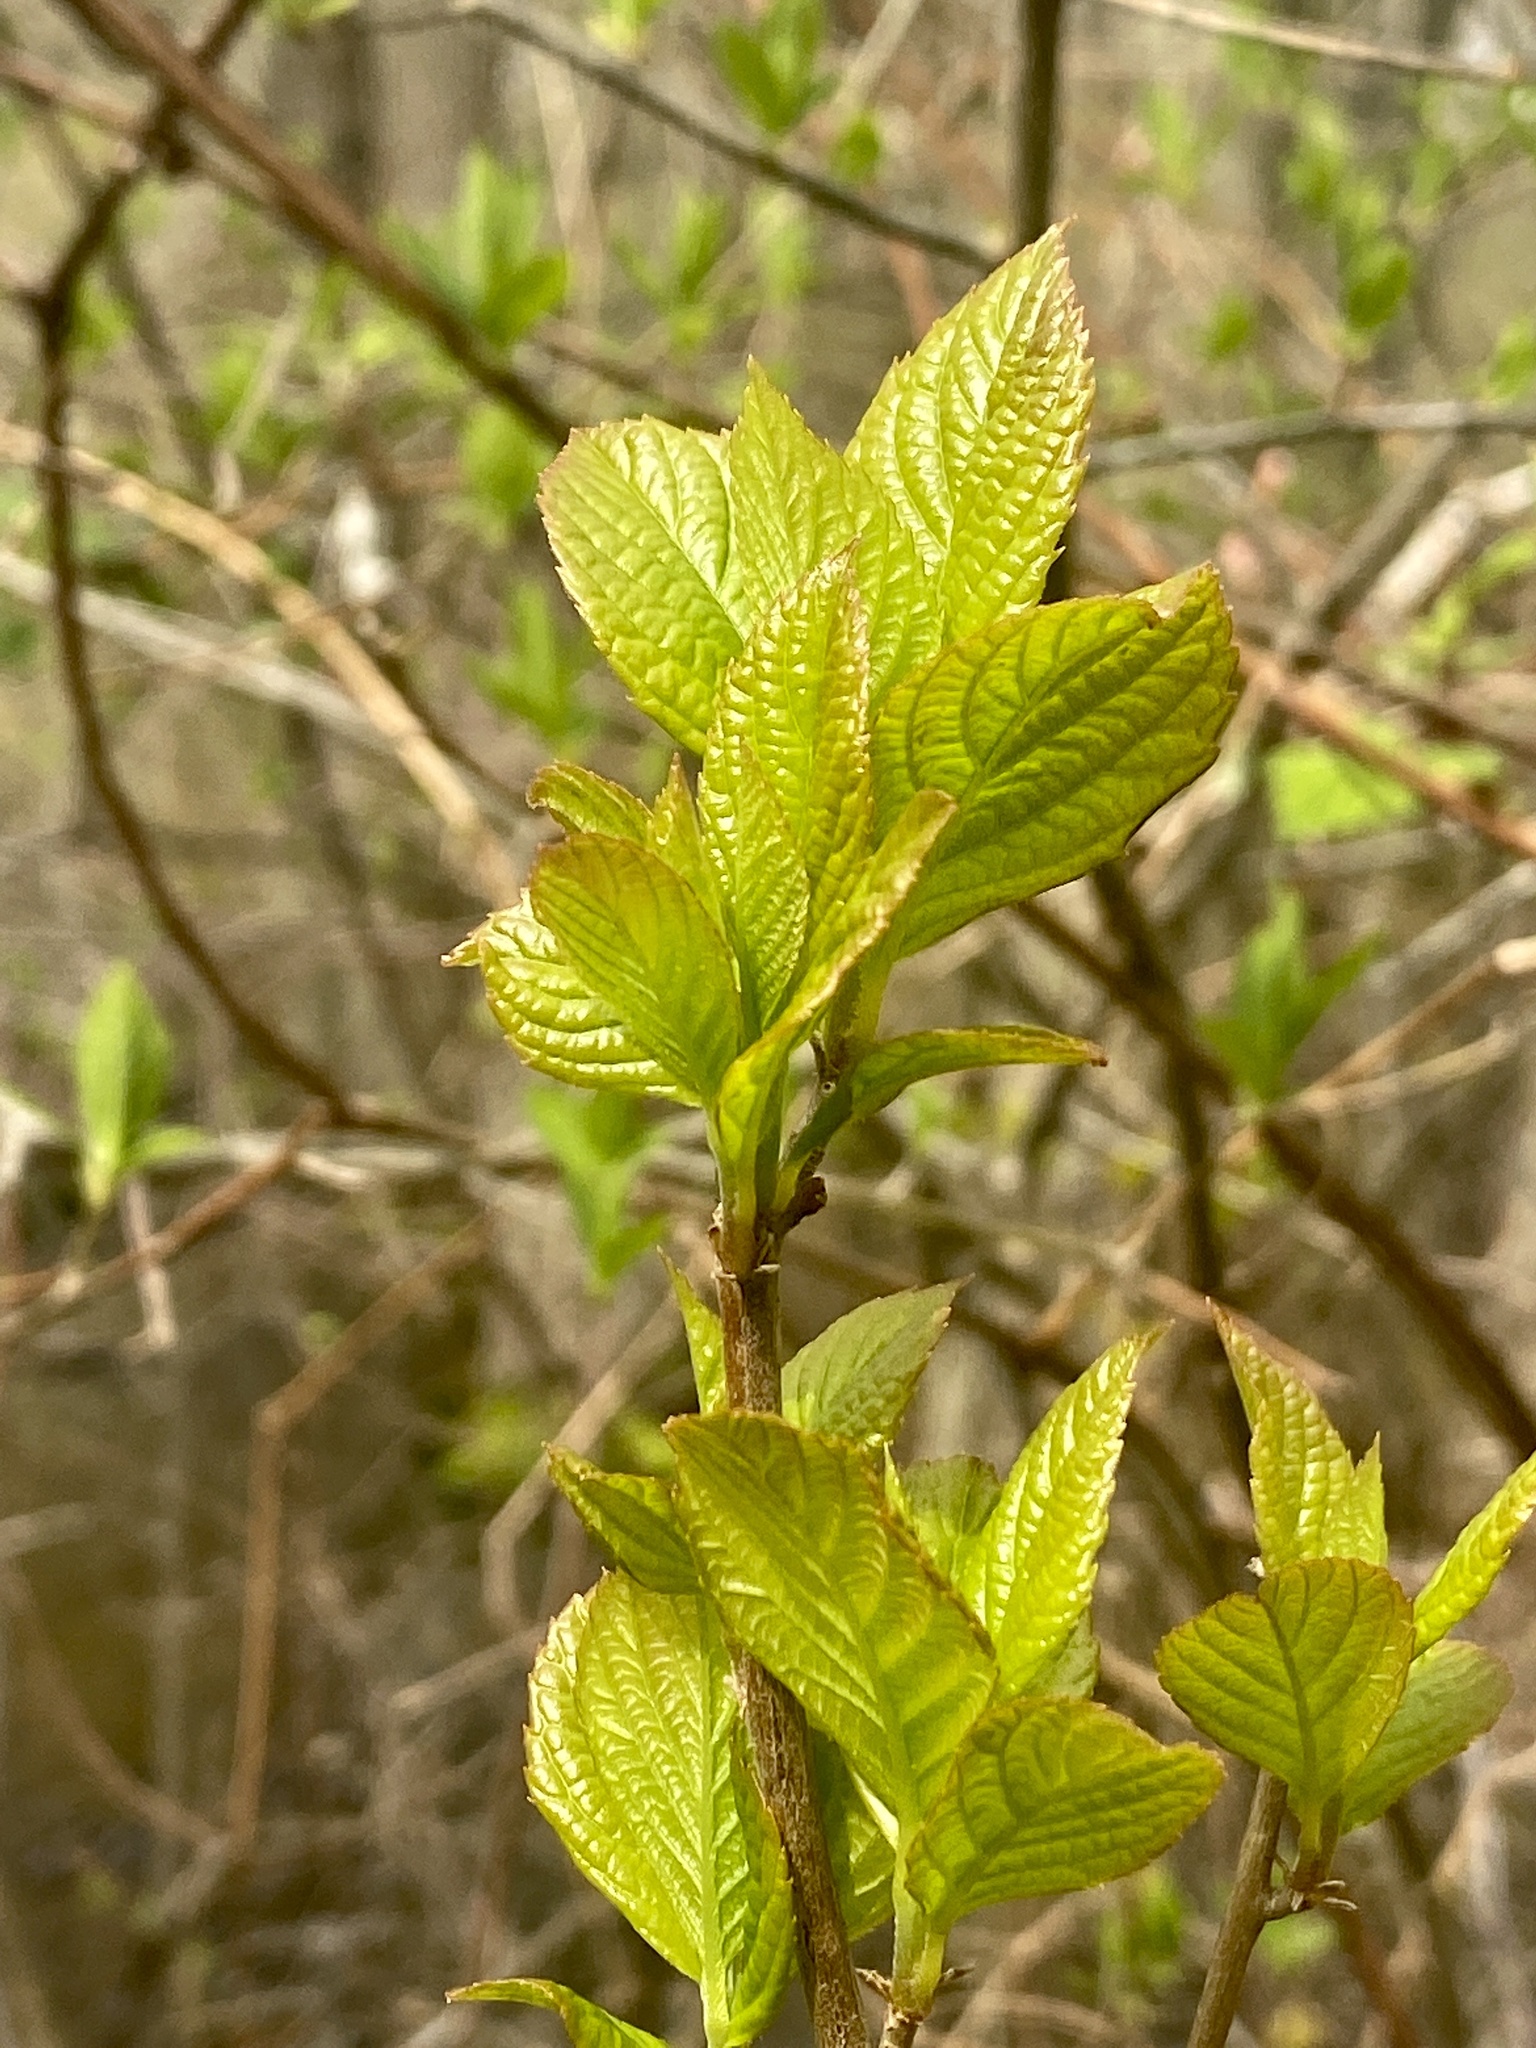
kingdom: Plantae
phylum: Tracheophyta
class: Magnoliopsida
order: Ericales
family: Clethraceae
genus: Clethra
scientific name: Clethra alnifolia
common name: Sweet pepperbush
